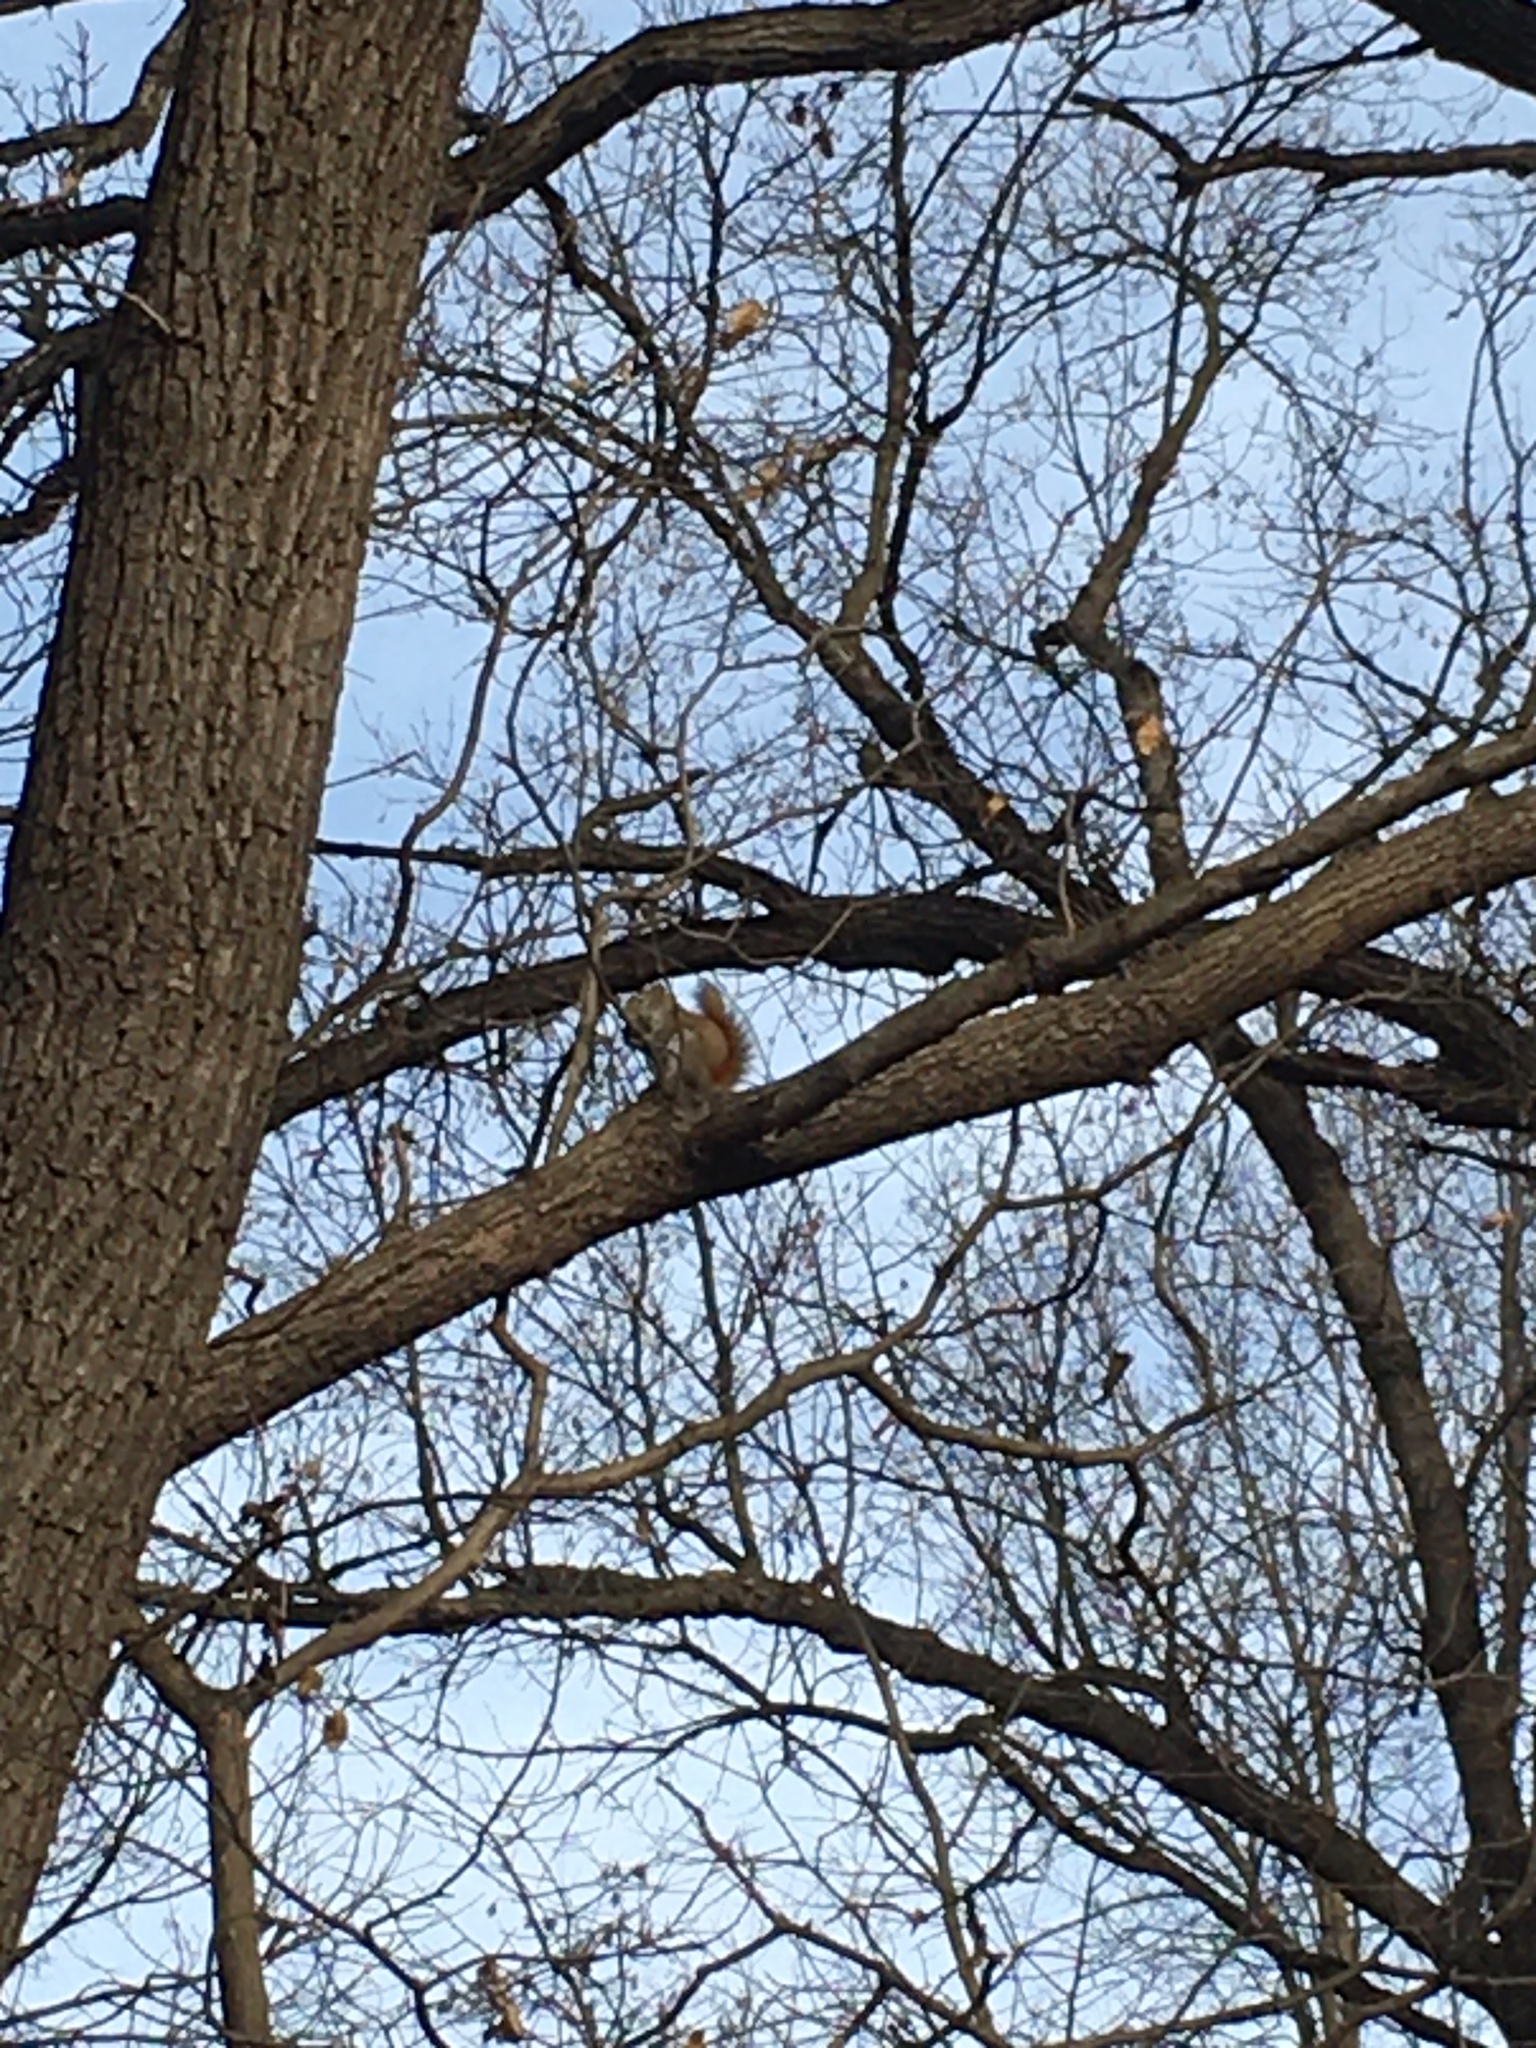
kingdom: Animalia
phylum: Chordata
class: Mammalia
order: Rodentia
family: Sciuridae
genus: Tamiasciurus
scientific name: Tamiasciurus hudsonicus
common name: Red squirrel
